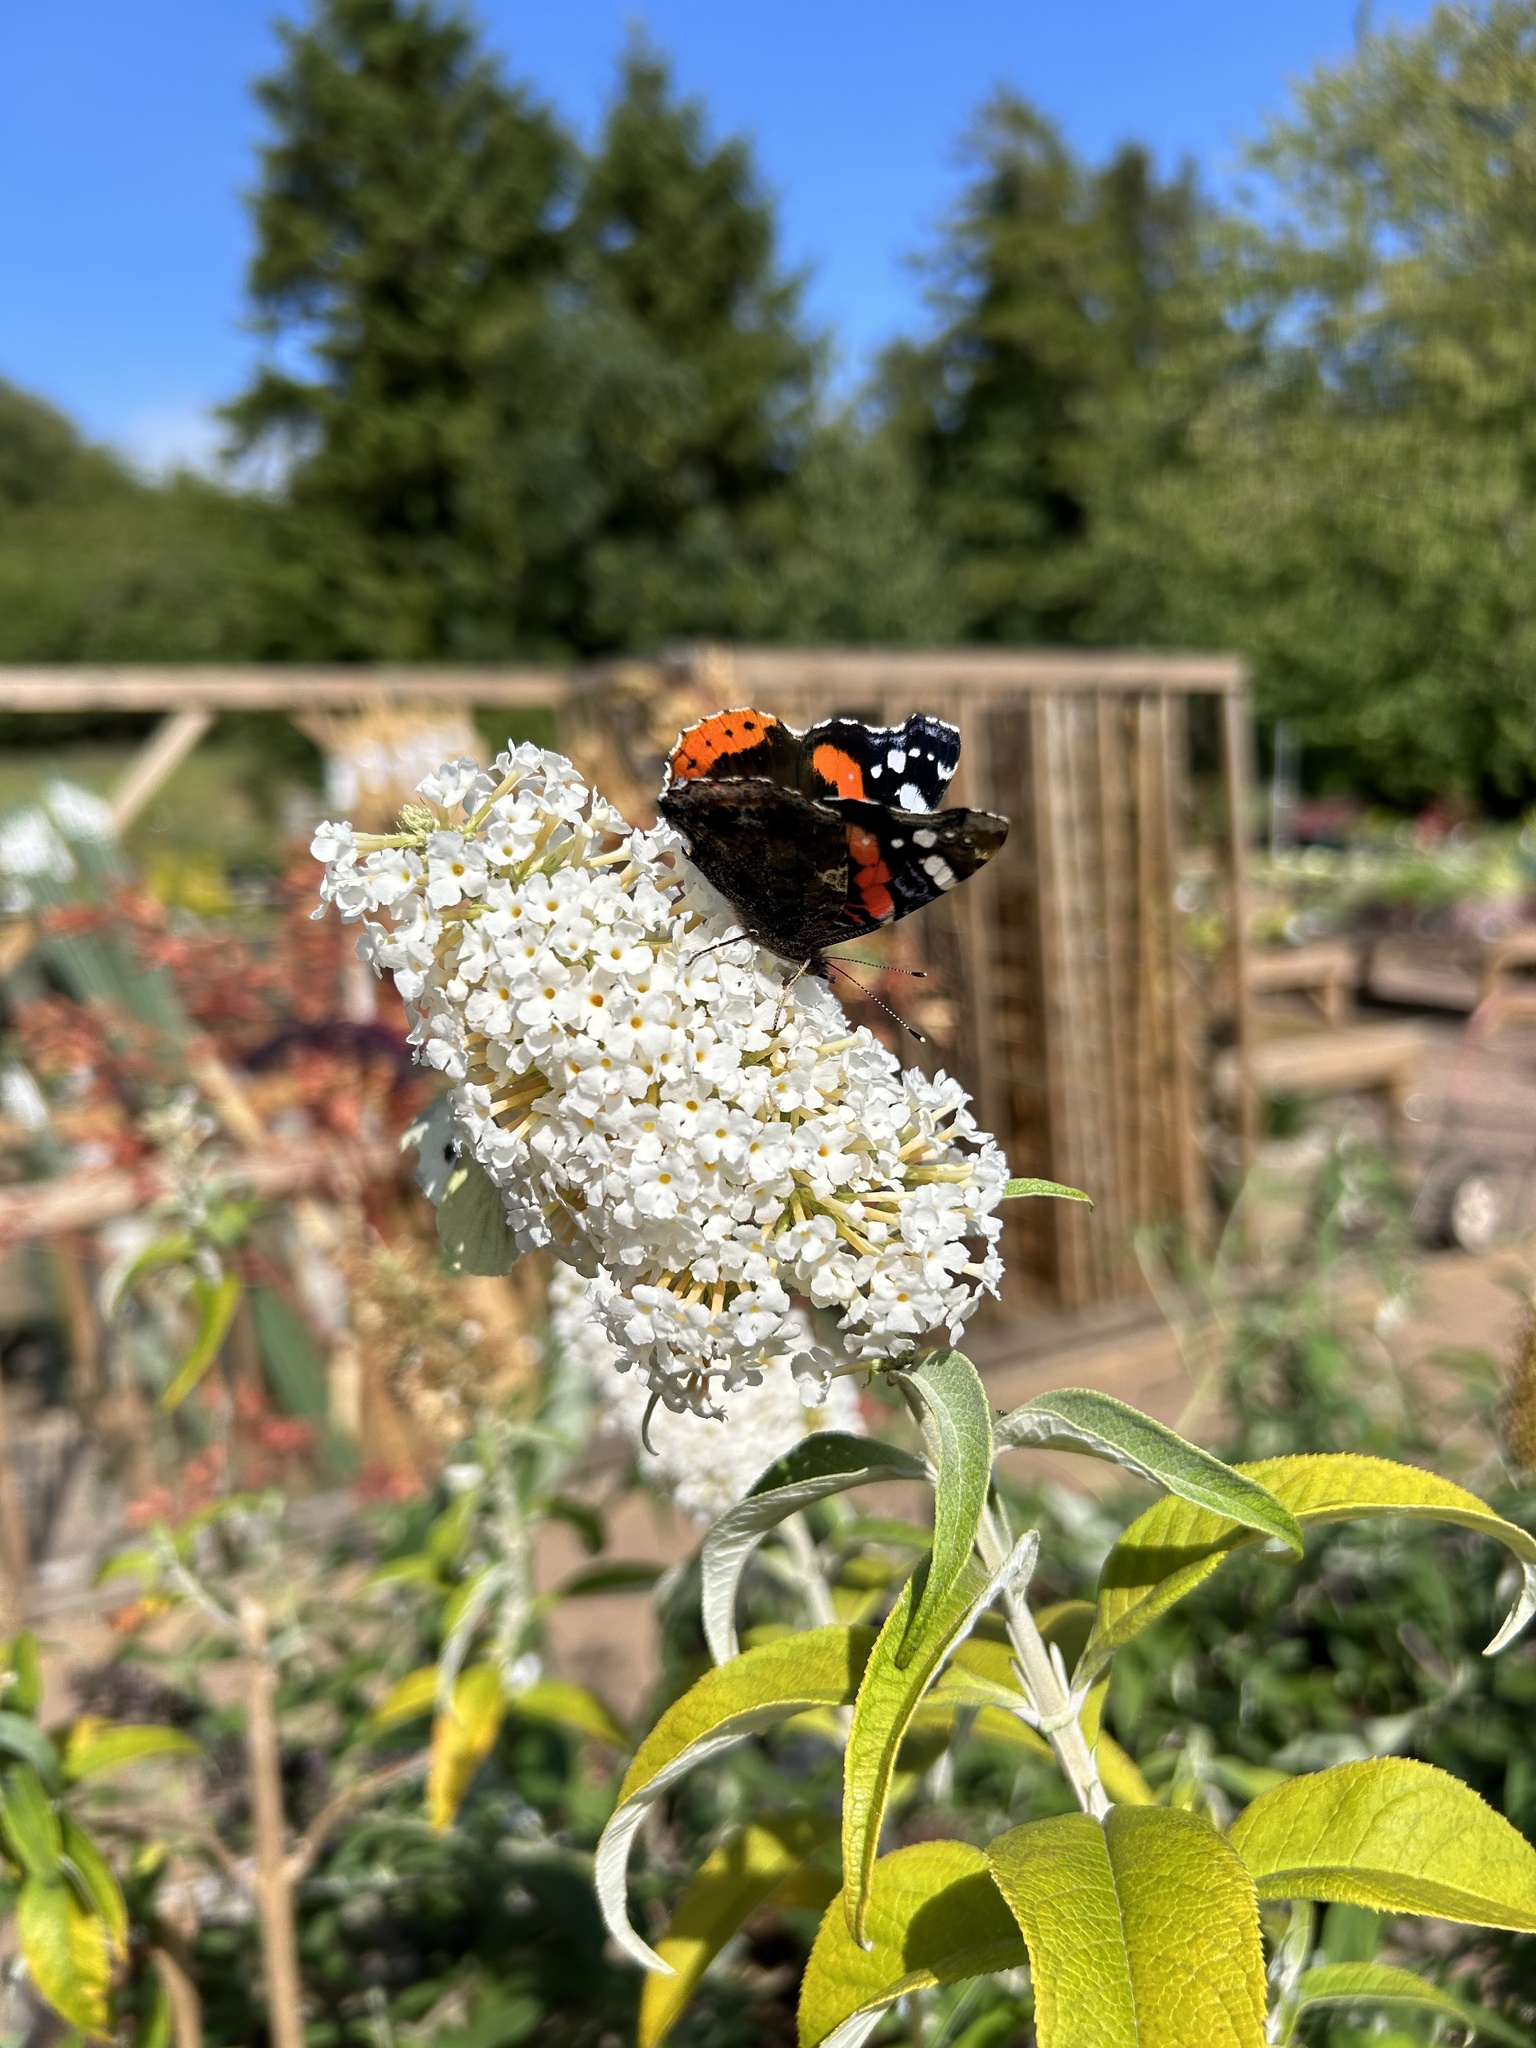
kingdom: Animalia
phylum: Arthropoda
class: Insecta
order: Lepidoptera
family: Nymphalidae
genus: Vanessa
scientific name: Vanessa atalanta
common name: Red admiral
